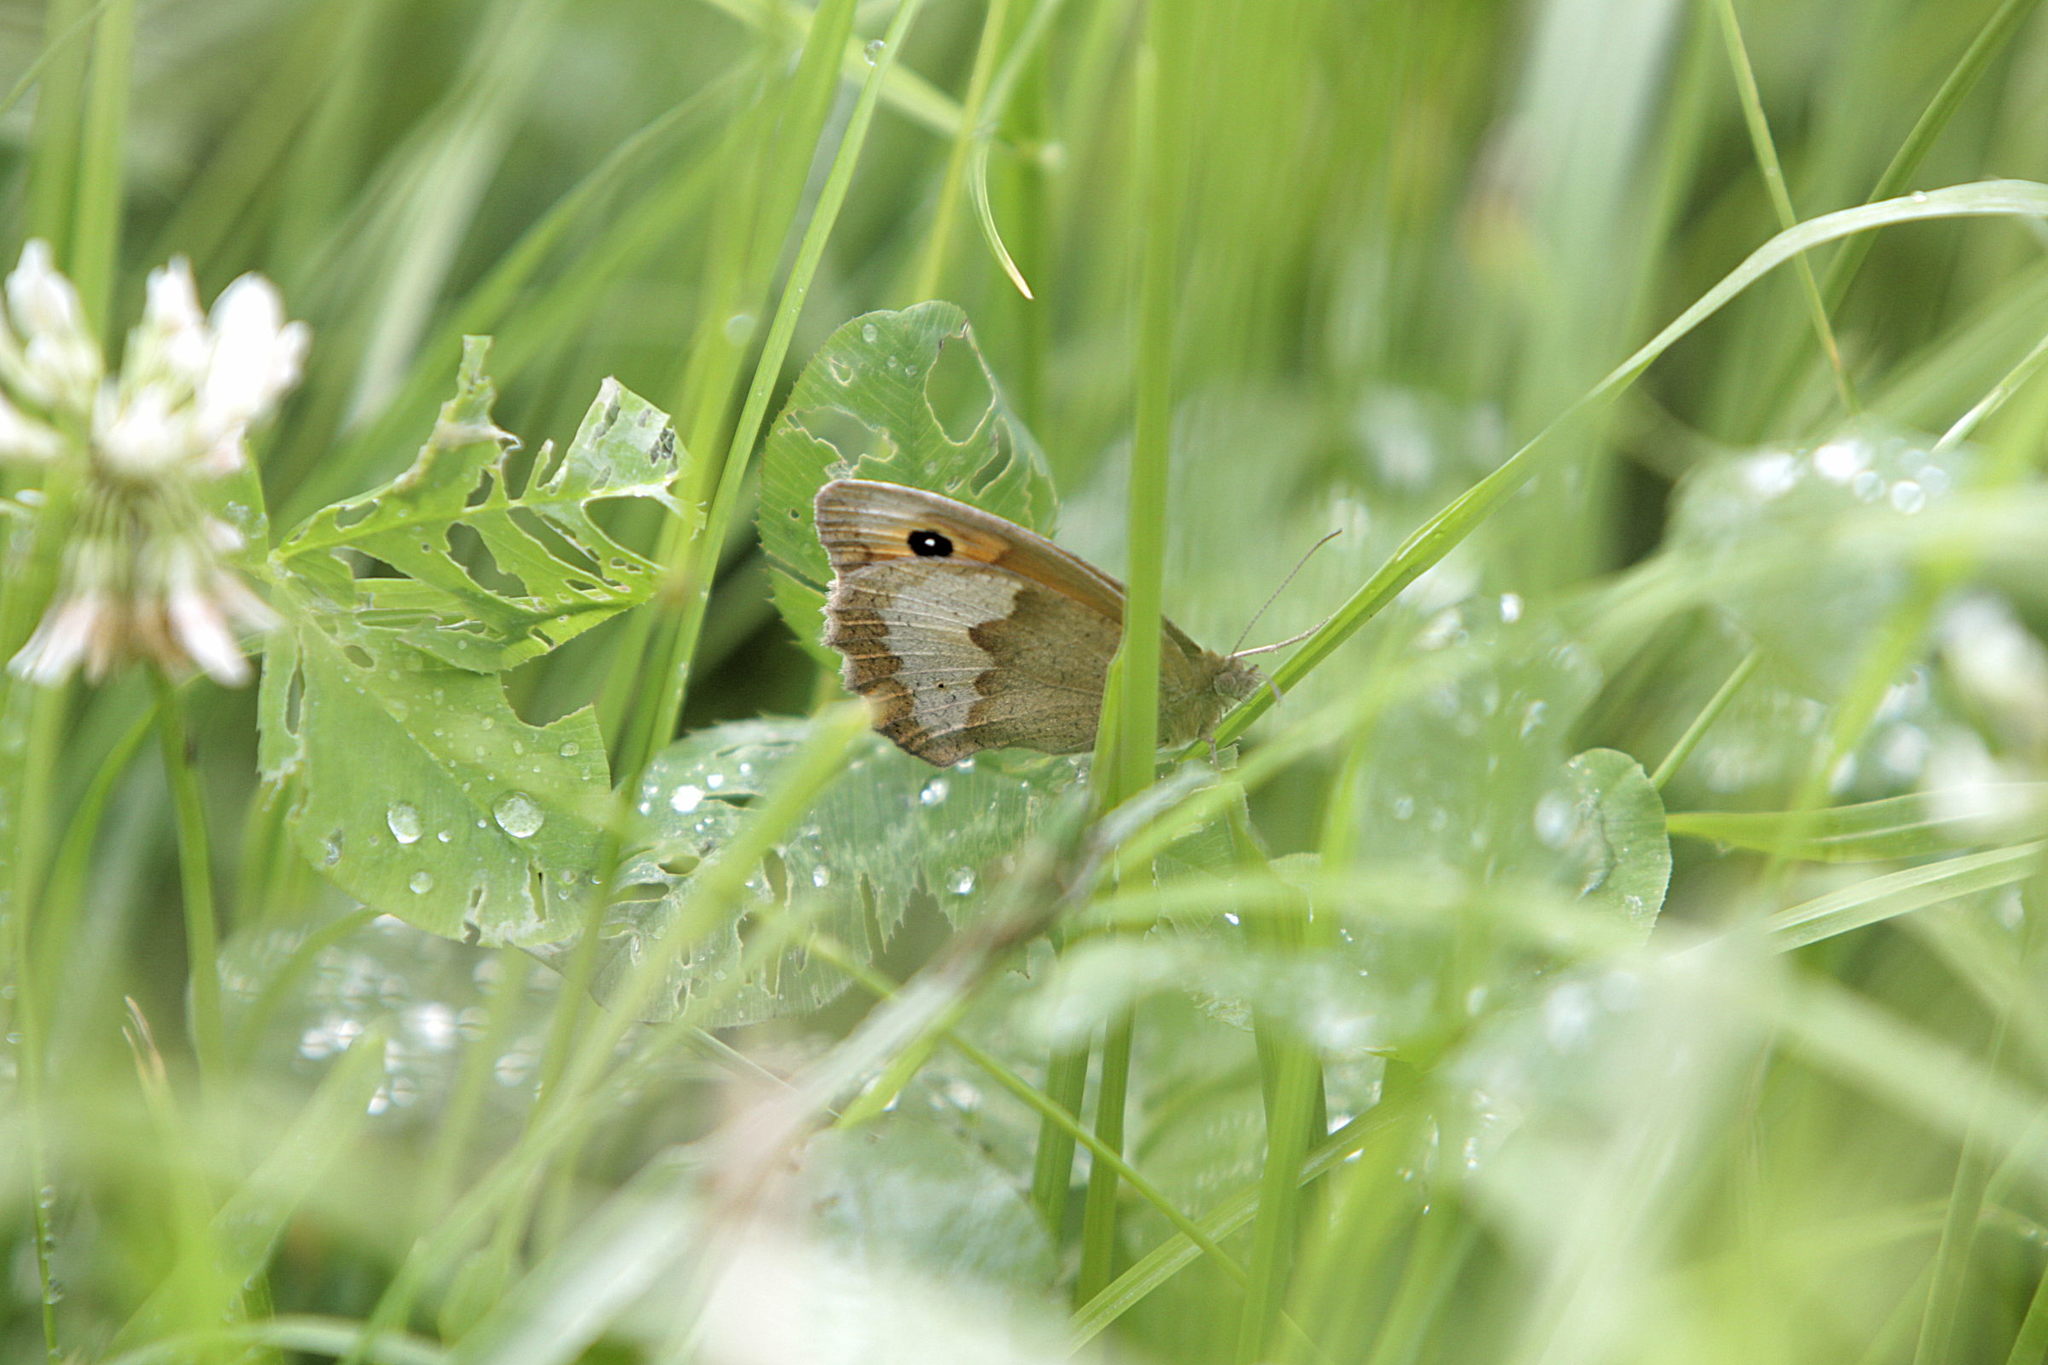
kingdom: Animalia
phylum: Arthropoda
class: Insecta
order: Lepidoptera
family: Nymphalidae
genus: Maniola
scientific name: Maniola jurtina
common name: Meadow brown
